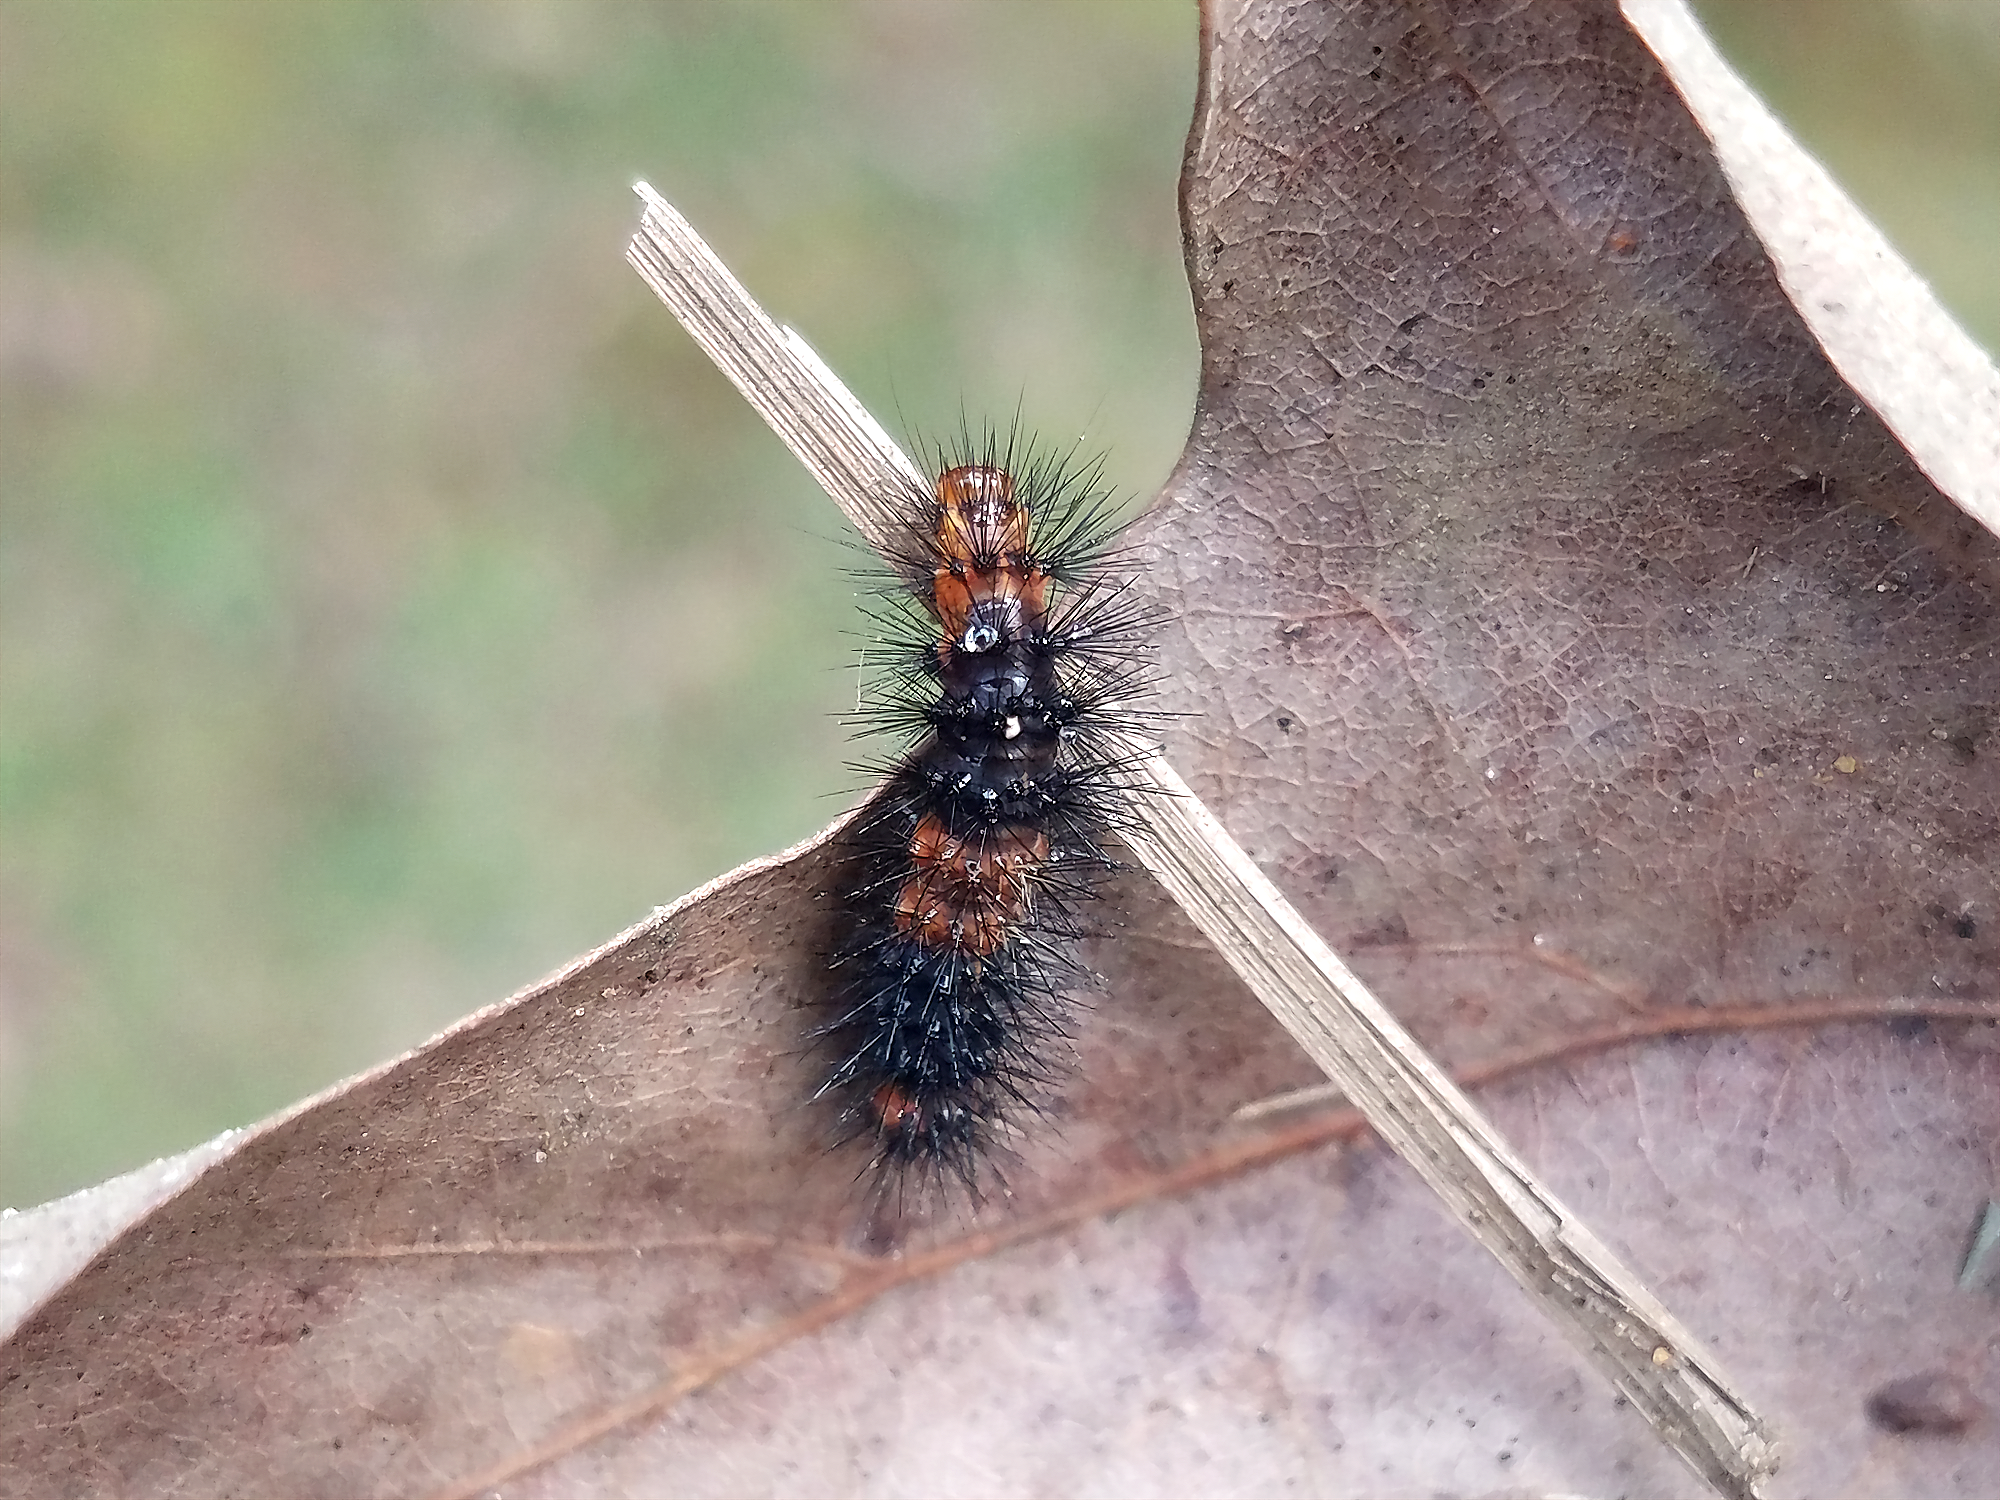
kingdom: Animalia
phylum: Arthropoda
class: Insecta
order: Lepidoptera
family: Erebidae
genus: Hypercompe
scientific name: Hypercompe scribonia
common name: Giant leopard moth
